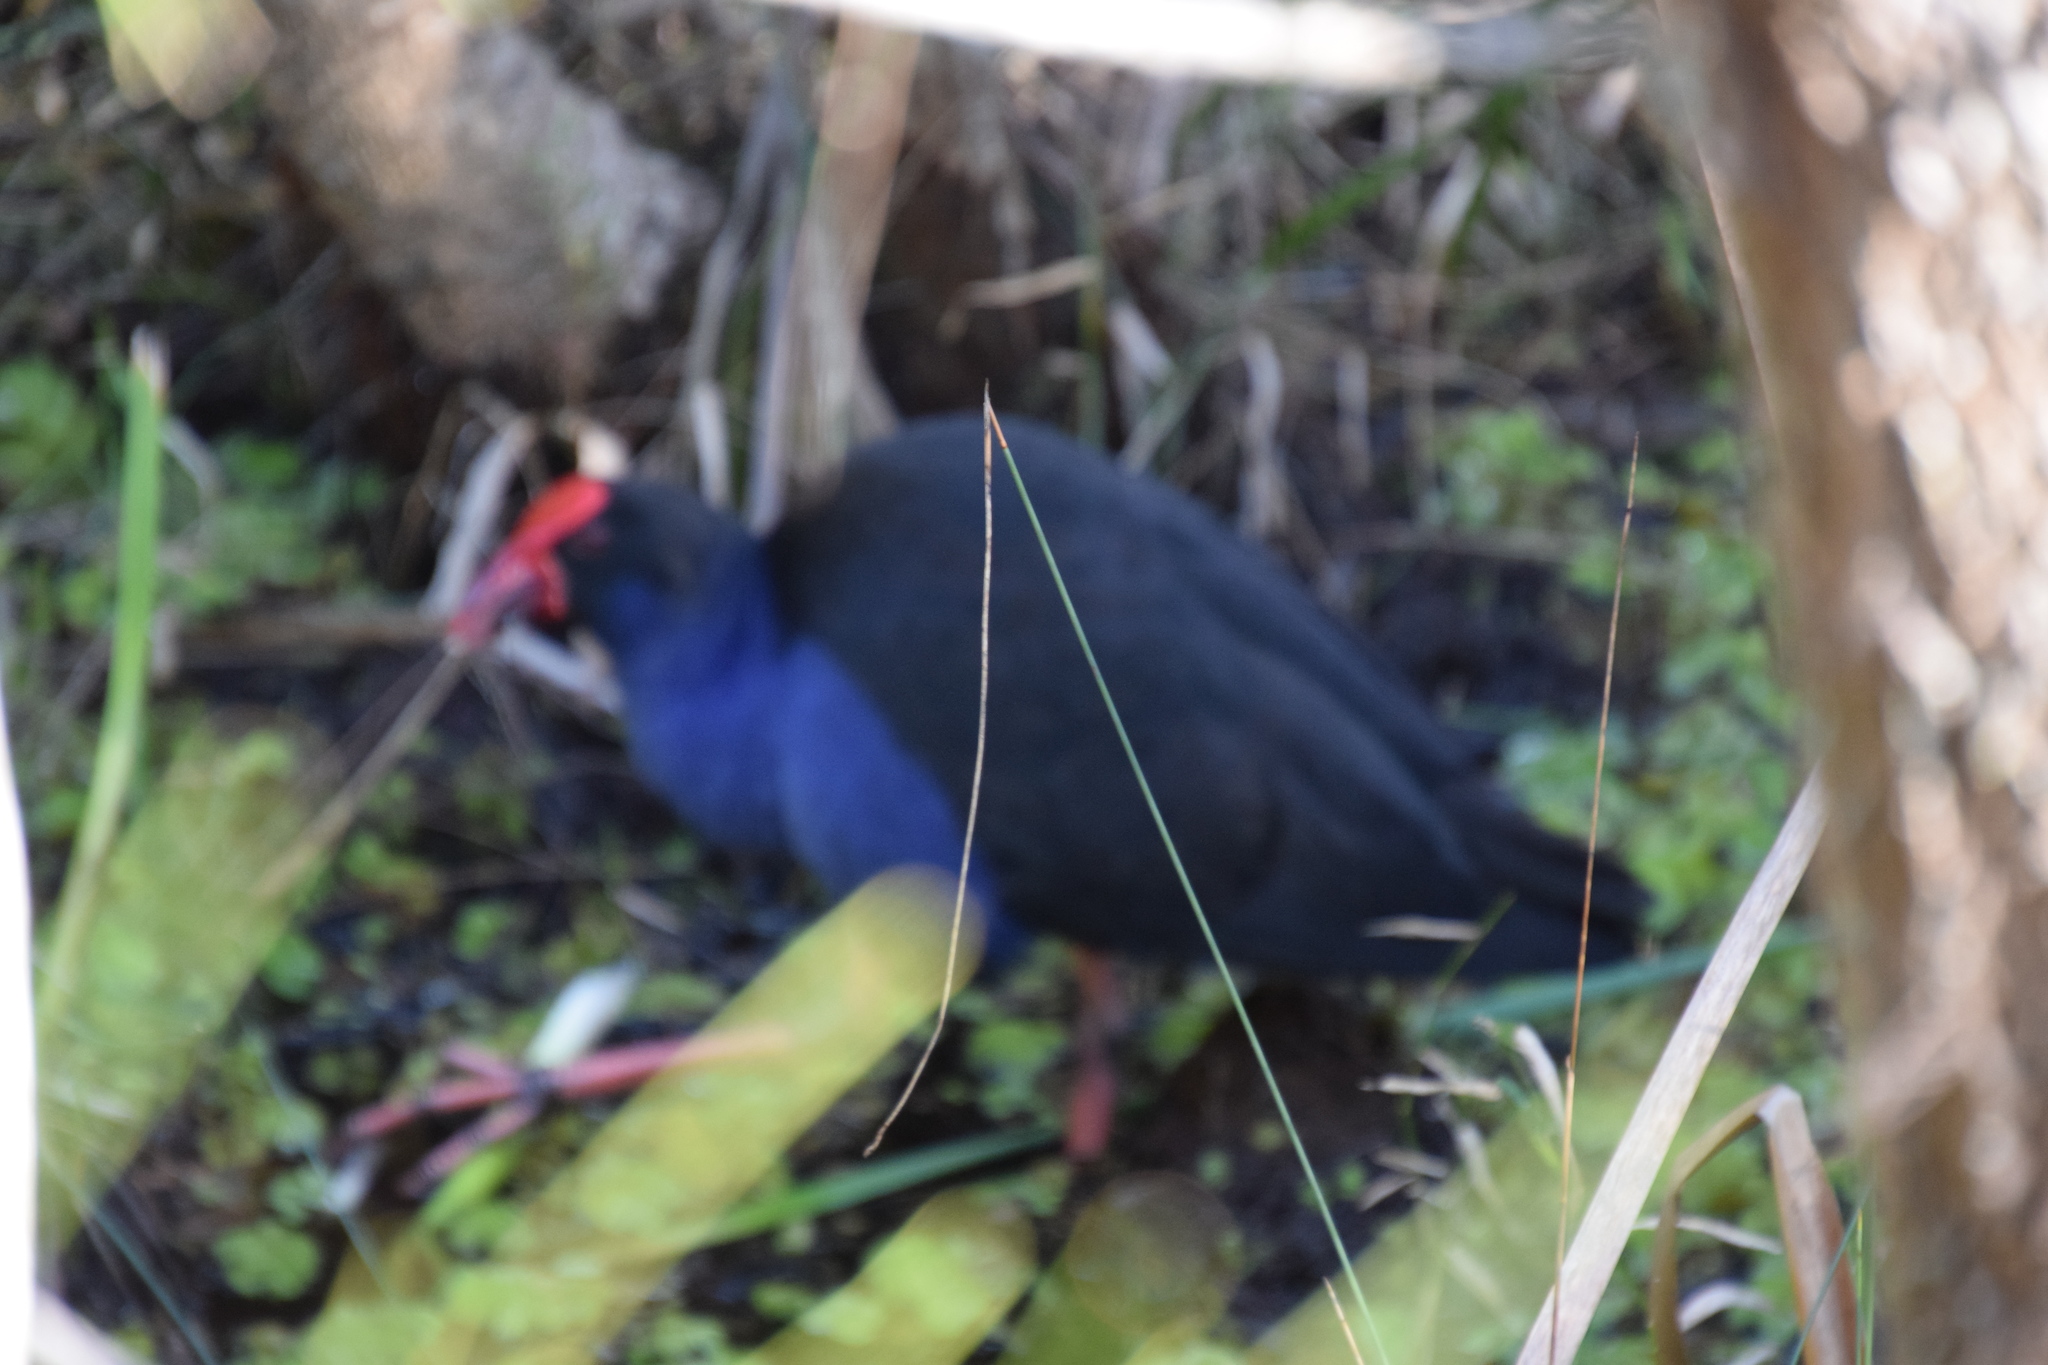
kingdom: Animalia
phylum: Chordata
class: Aves
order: Gruiformes
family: Rallidae
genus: Porphyrio
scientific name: Porphyrio melanotus
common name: Australasian swamphen
